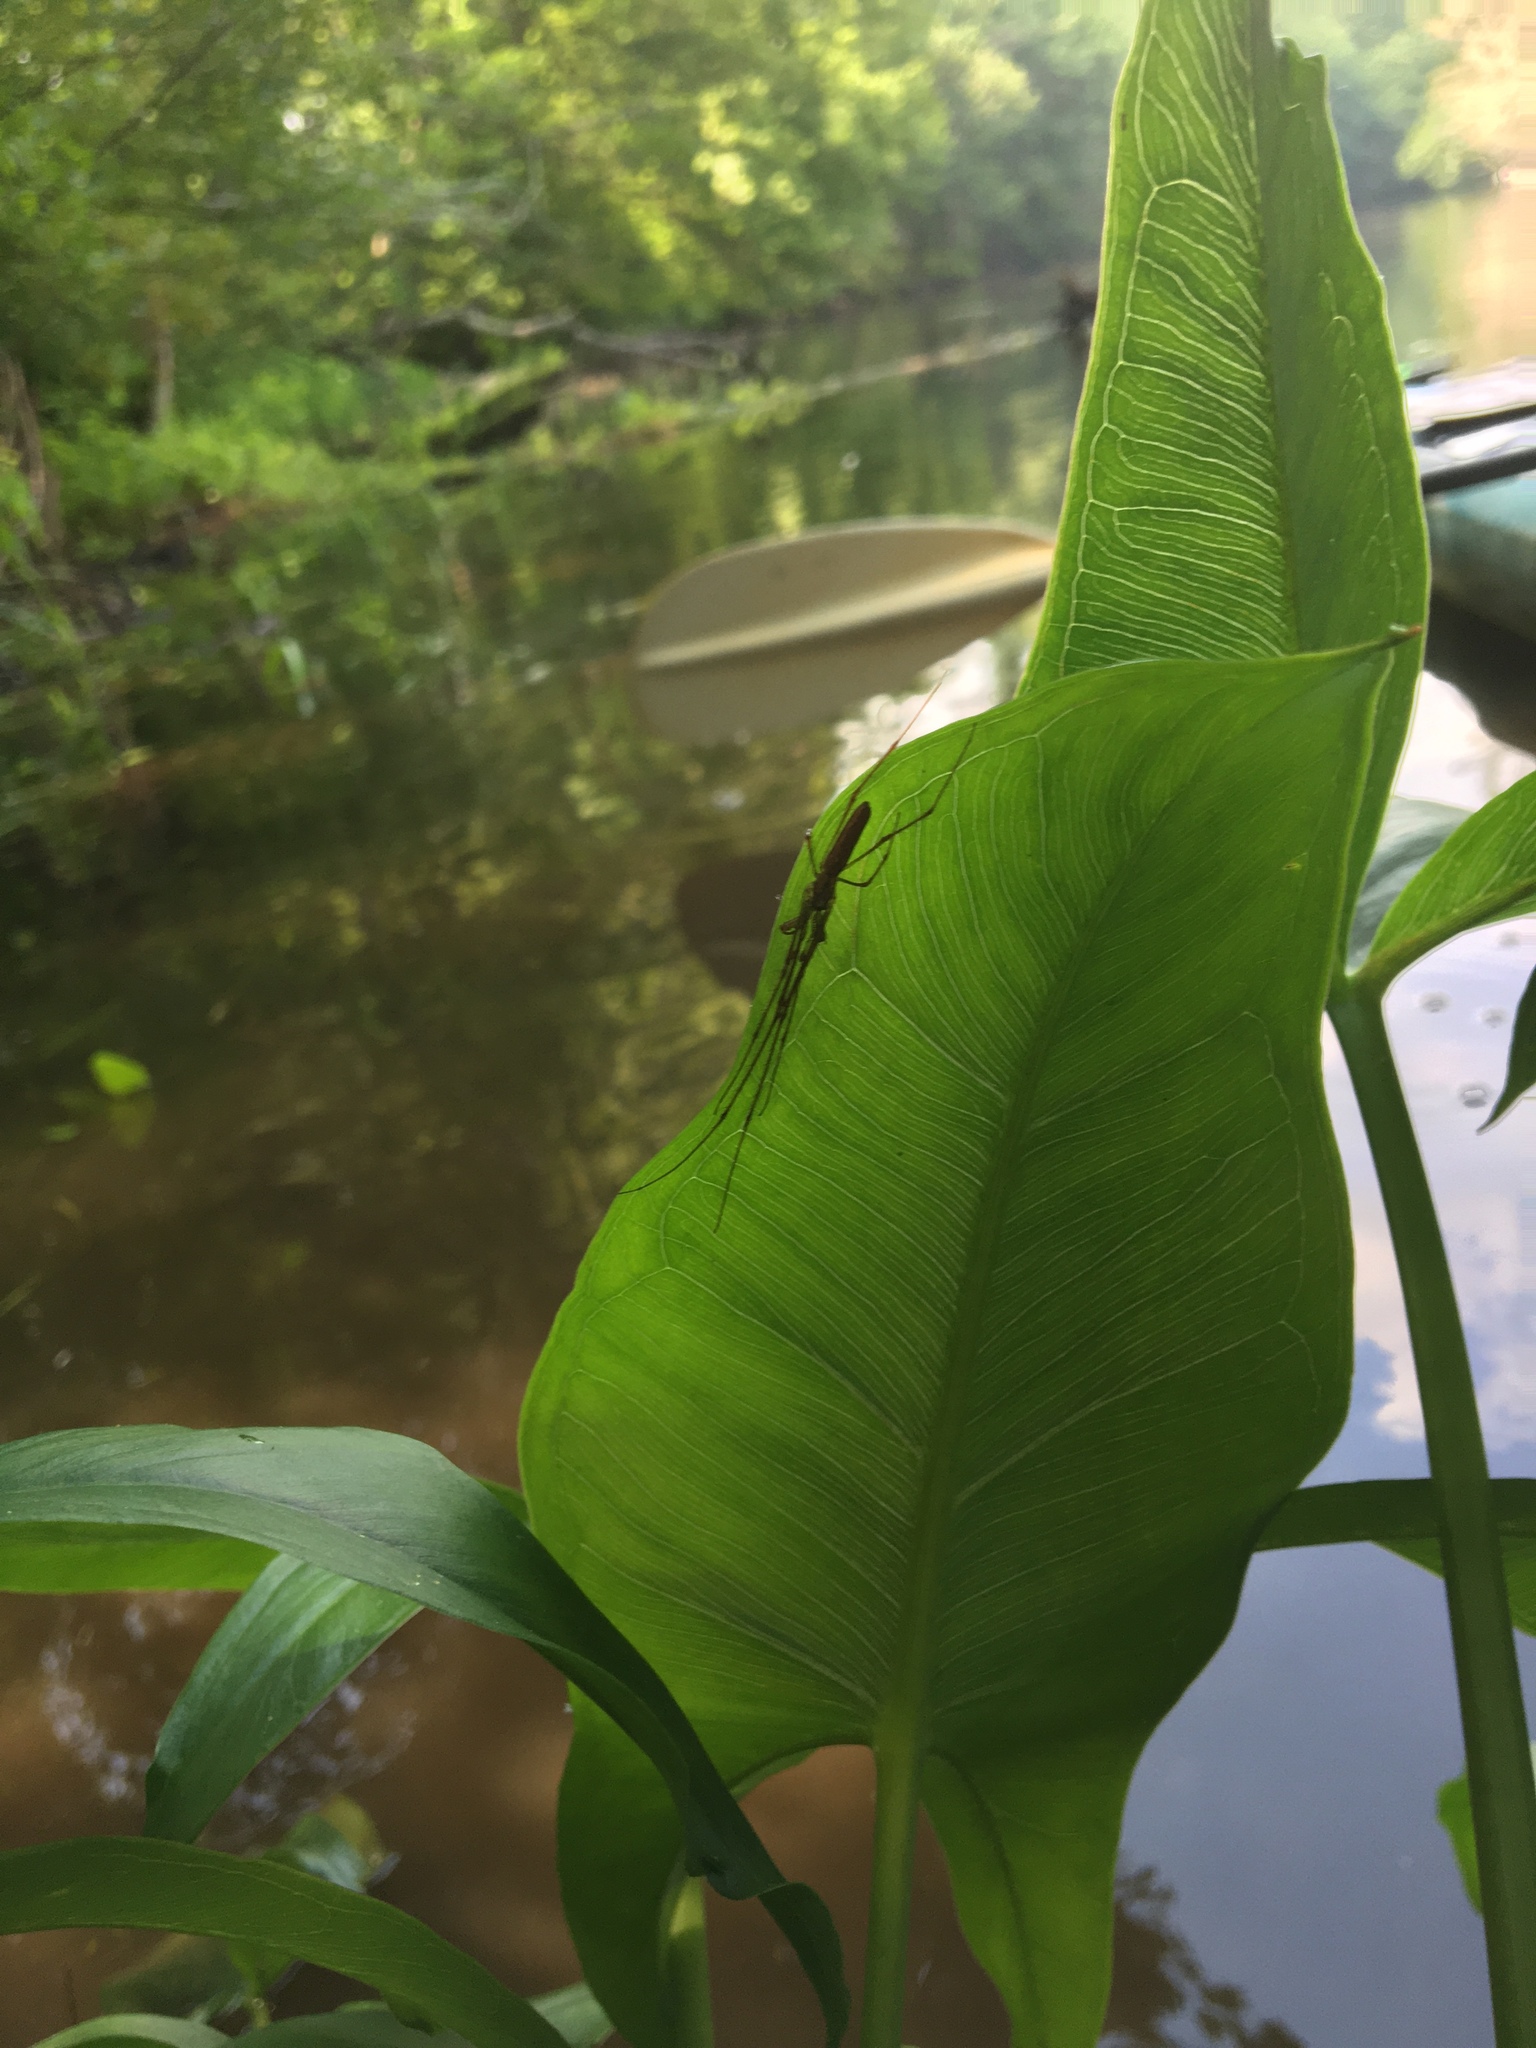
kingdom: Animalia
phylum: Arthropoda
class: Arachnida
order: Araneae
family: Tetragnathidae
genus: Tetragnatha
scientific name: Tetragnatha
